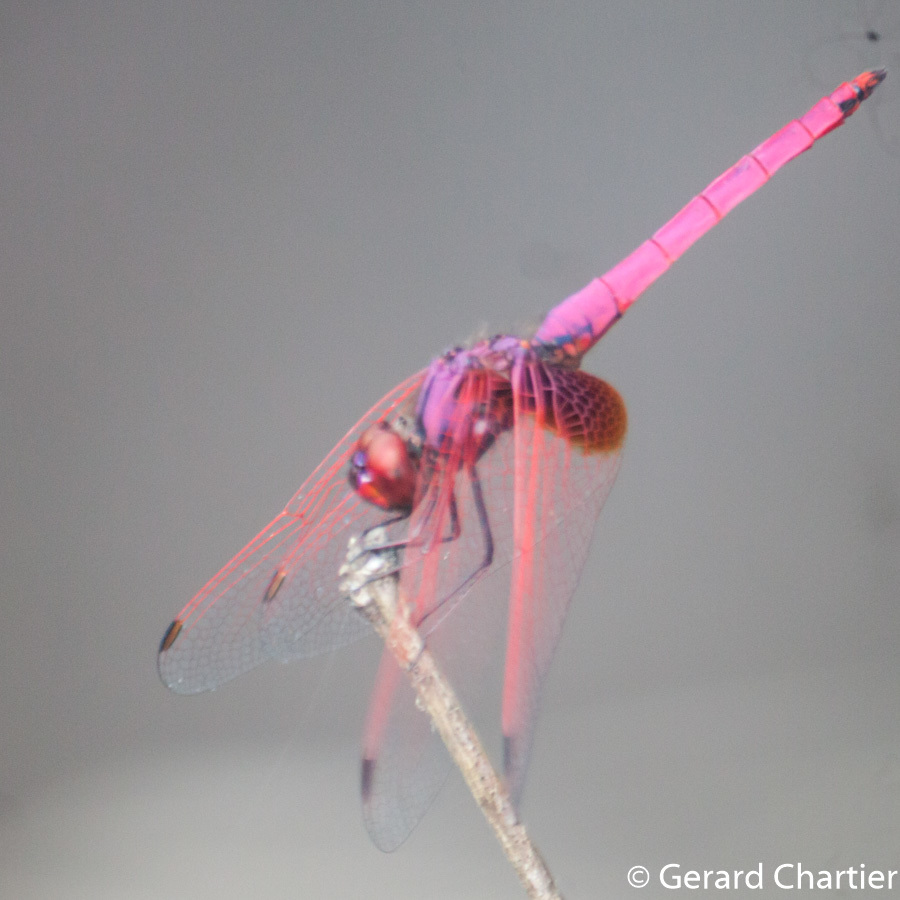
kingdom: Animalia
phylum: Arthropoda
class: Insecta
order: Odonata
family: Libellulidae
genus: Trithemis
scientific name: Trithemis aurora
